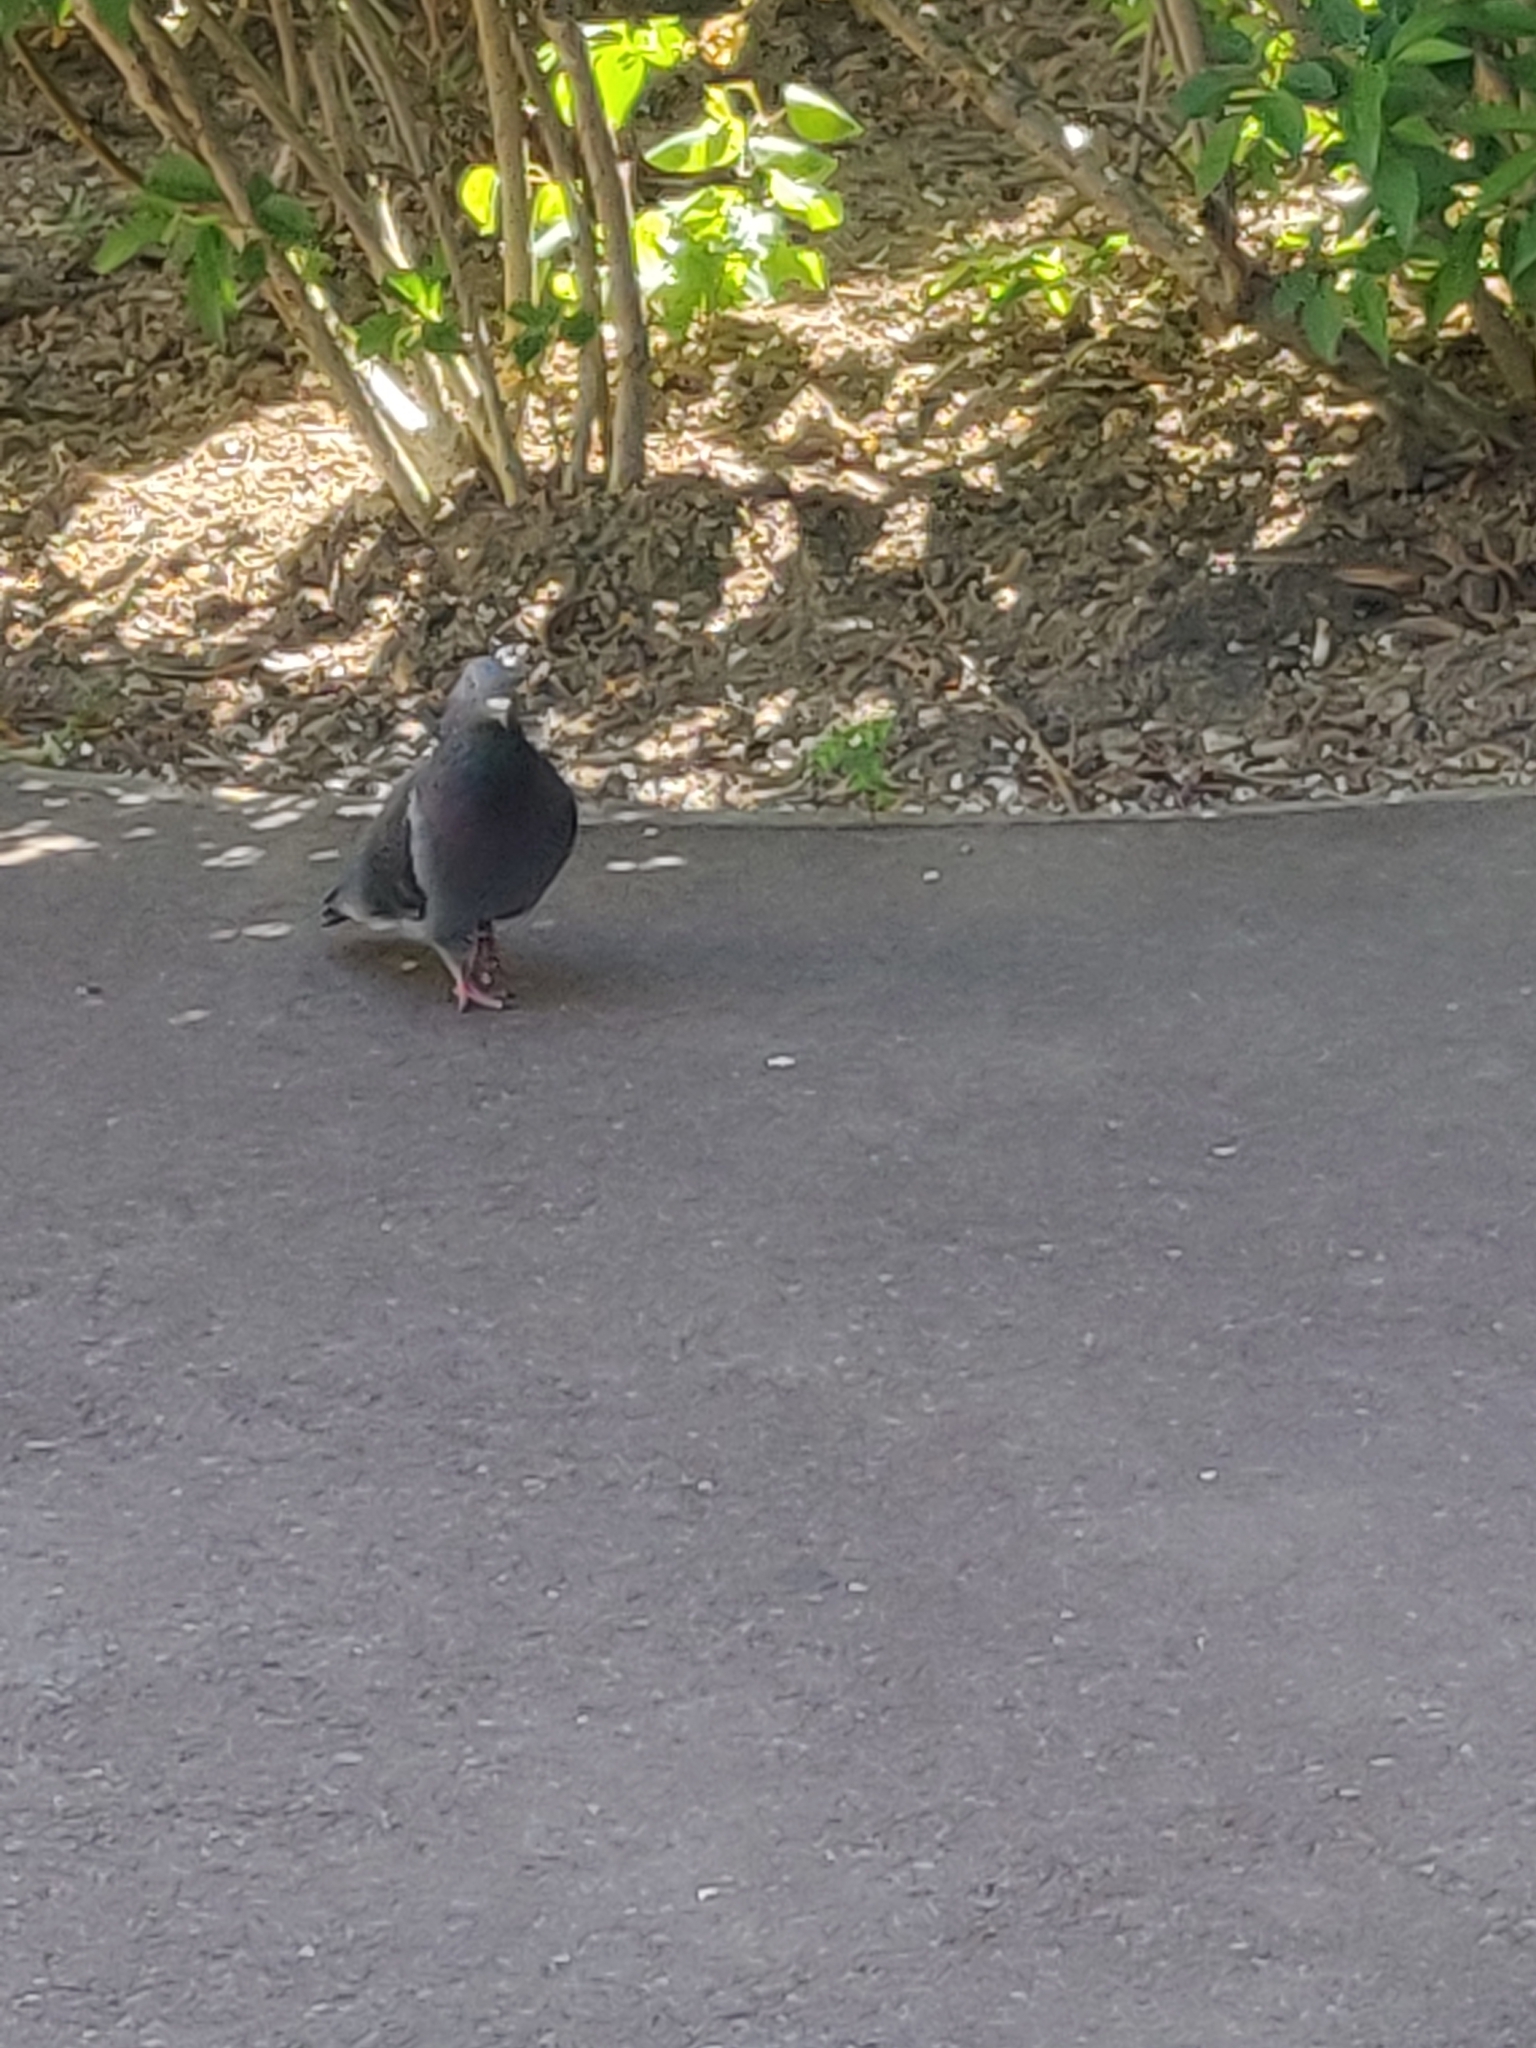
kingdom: Animalia
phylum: Chordata
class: Aves
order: Columbiformes
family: Columbidae
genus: Columba
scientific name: Columba livia
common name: Rock pigeon
